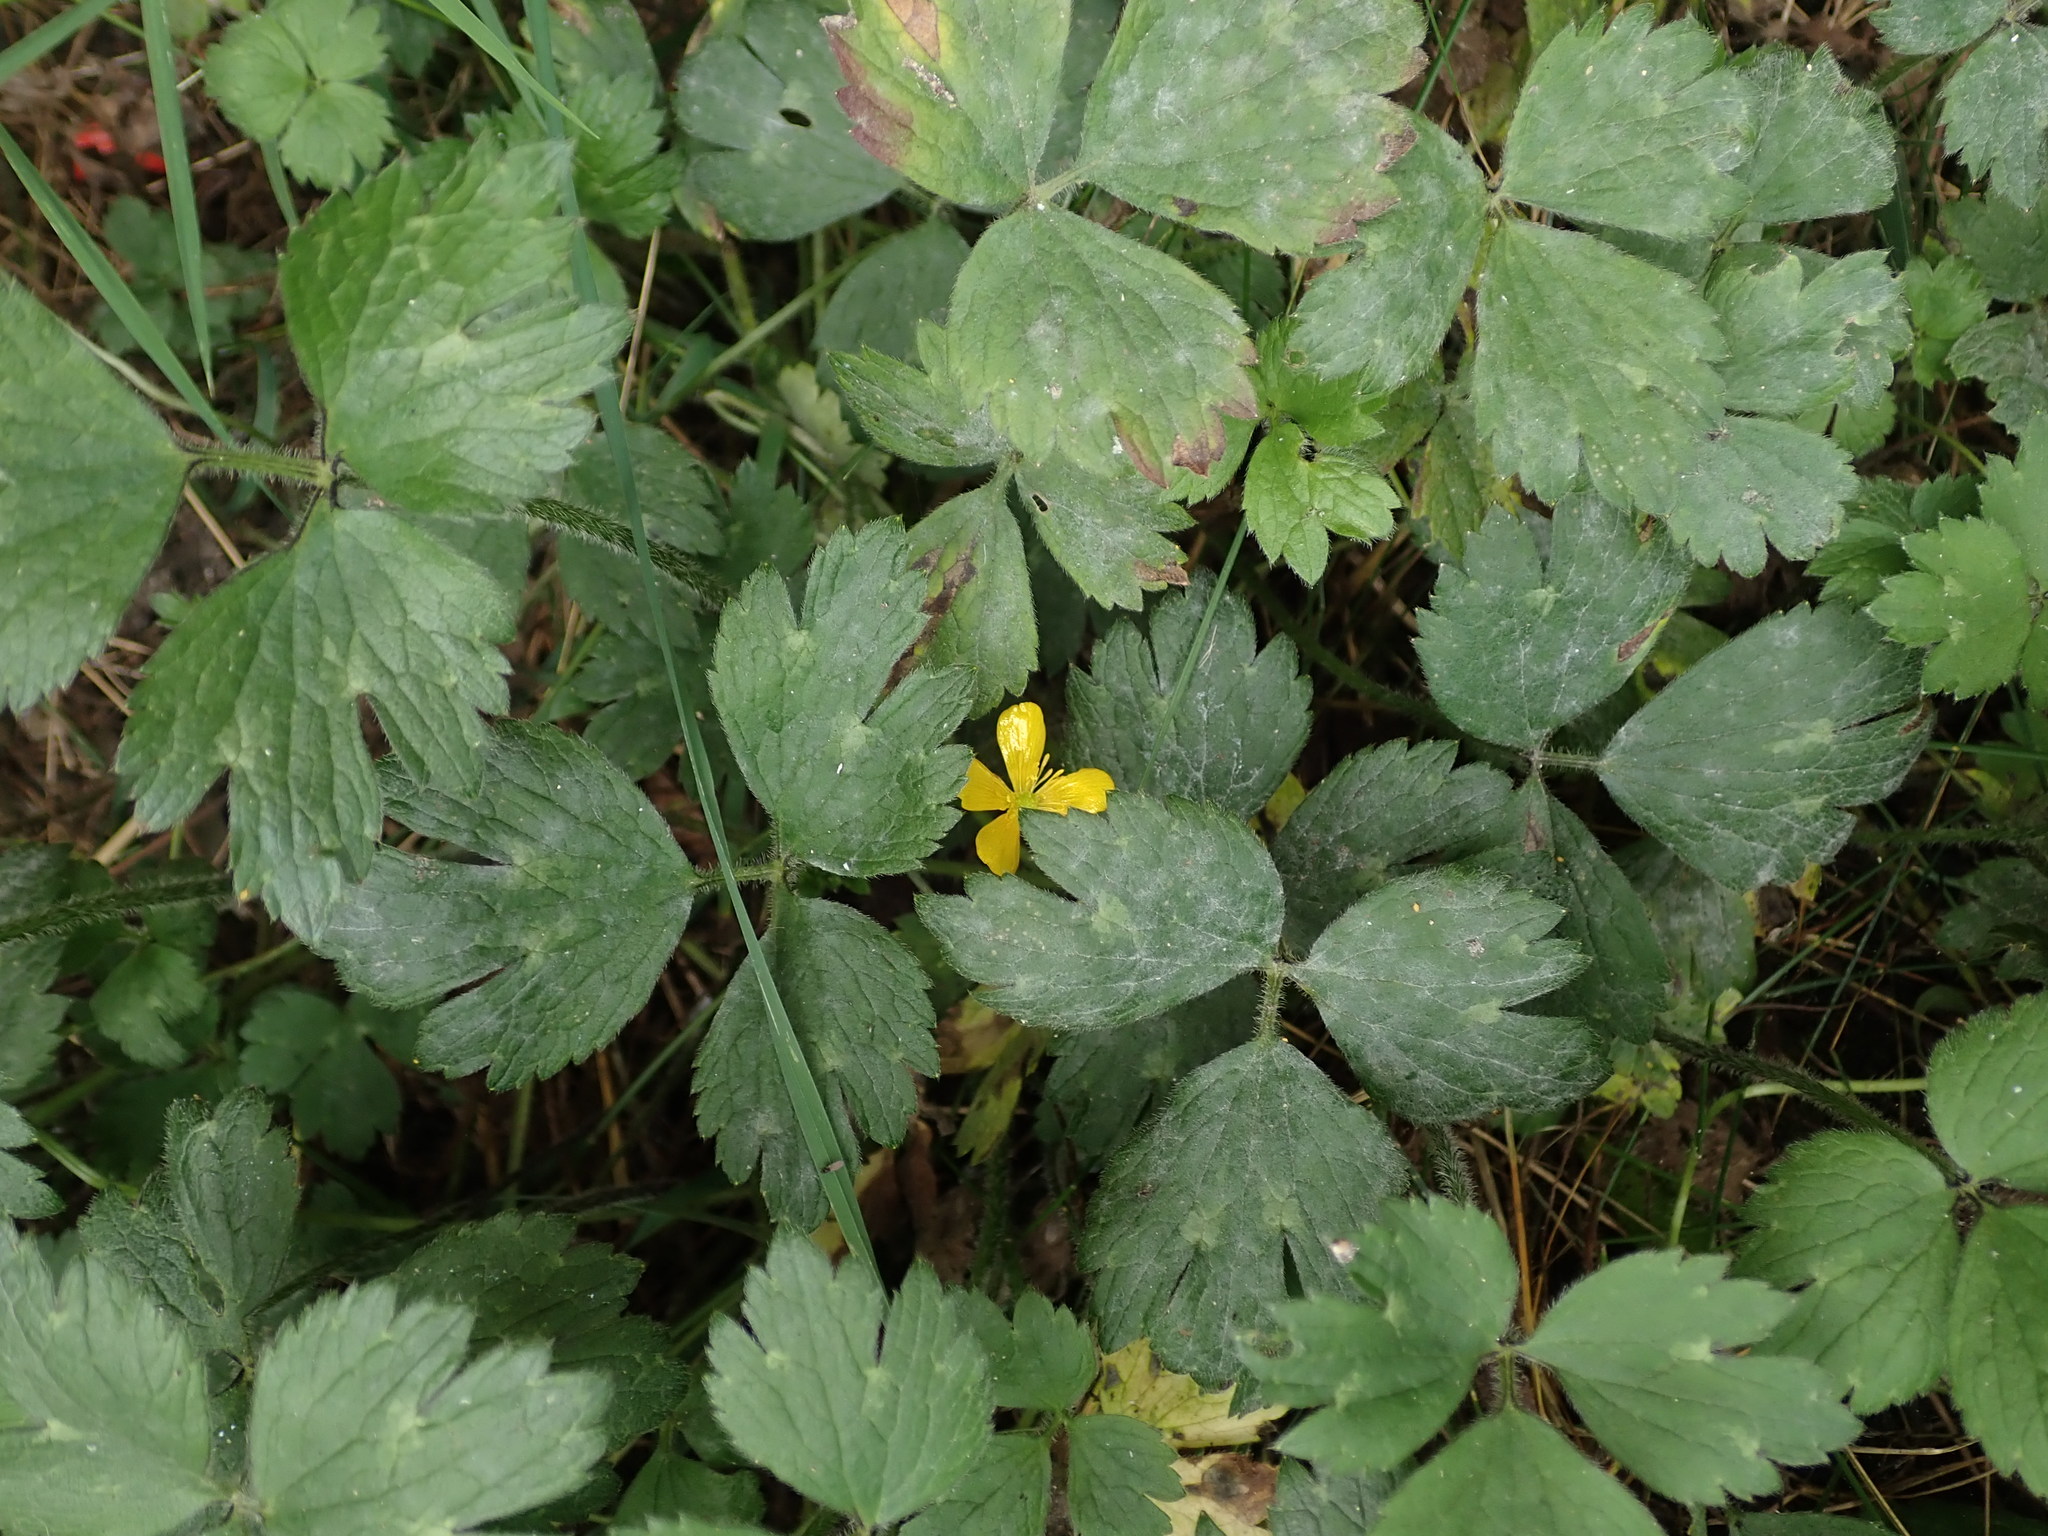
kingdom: Plantae
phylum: Tracheophyta
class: Magnoliopsida
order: Ranunculales
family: Ranunculaceae
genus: Ranunculus
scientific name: Ranunculus repens
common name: Creeping buttercup
